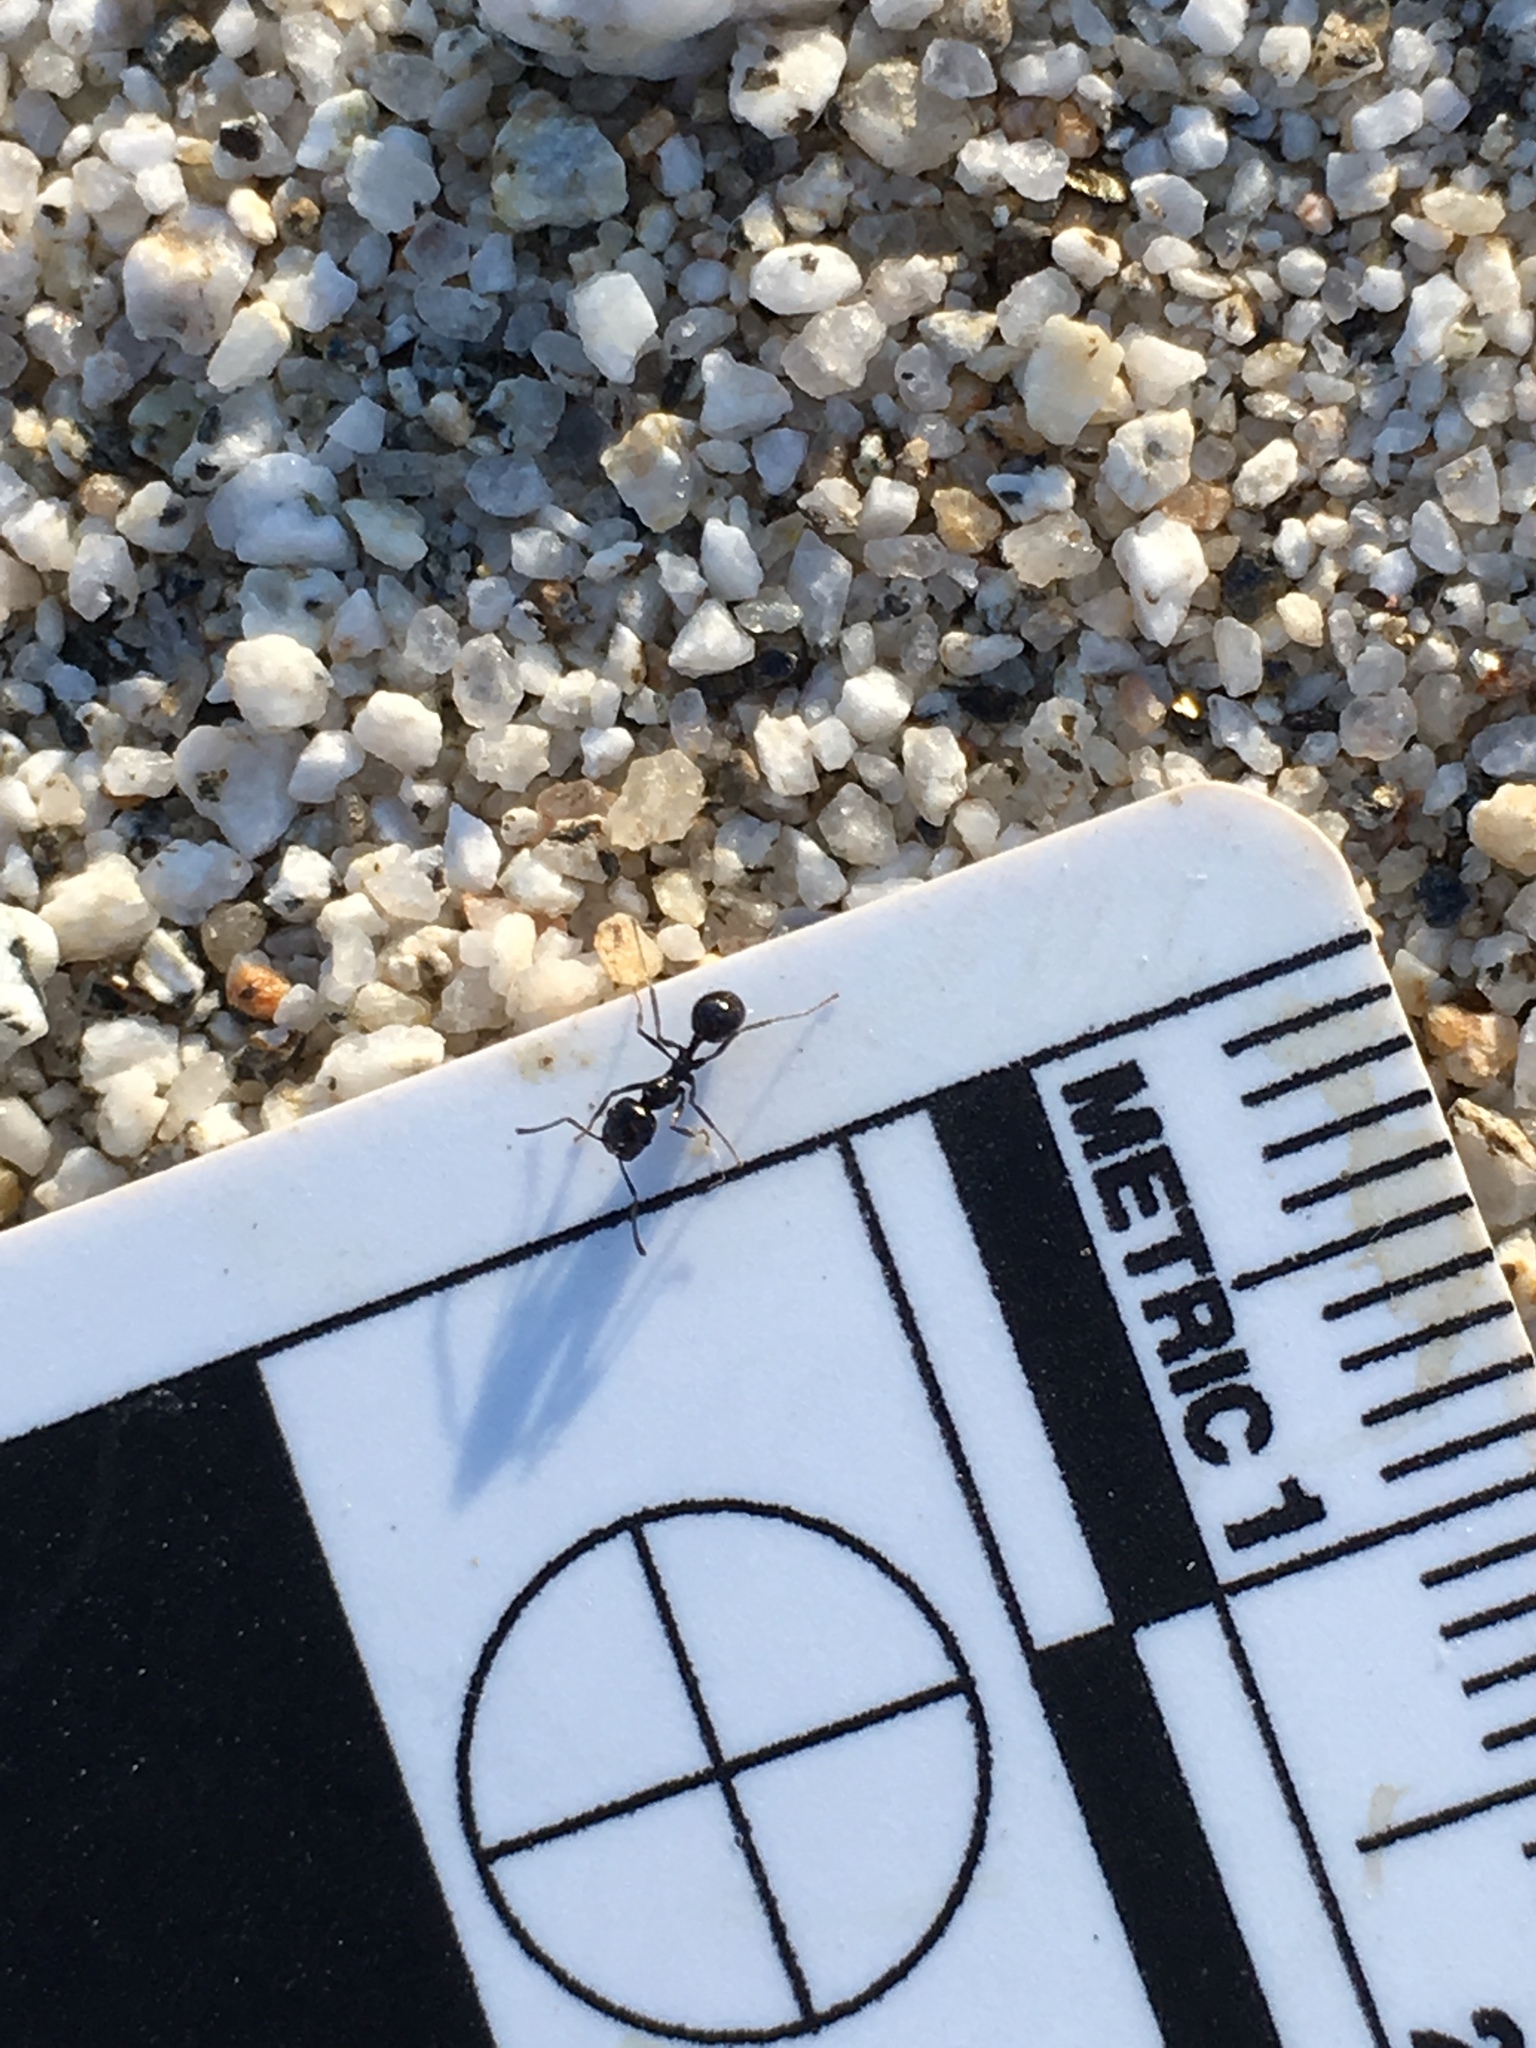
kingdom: Animalia
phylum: Arthropoda
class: Insecta
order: Hymenoptera
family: Formicidae
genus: Messor
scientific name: Messor pergandei
